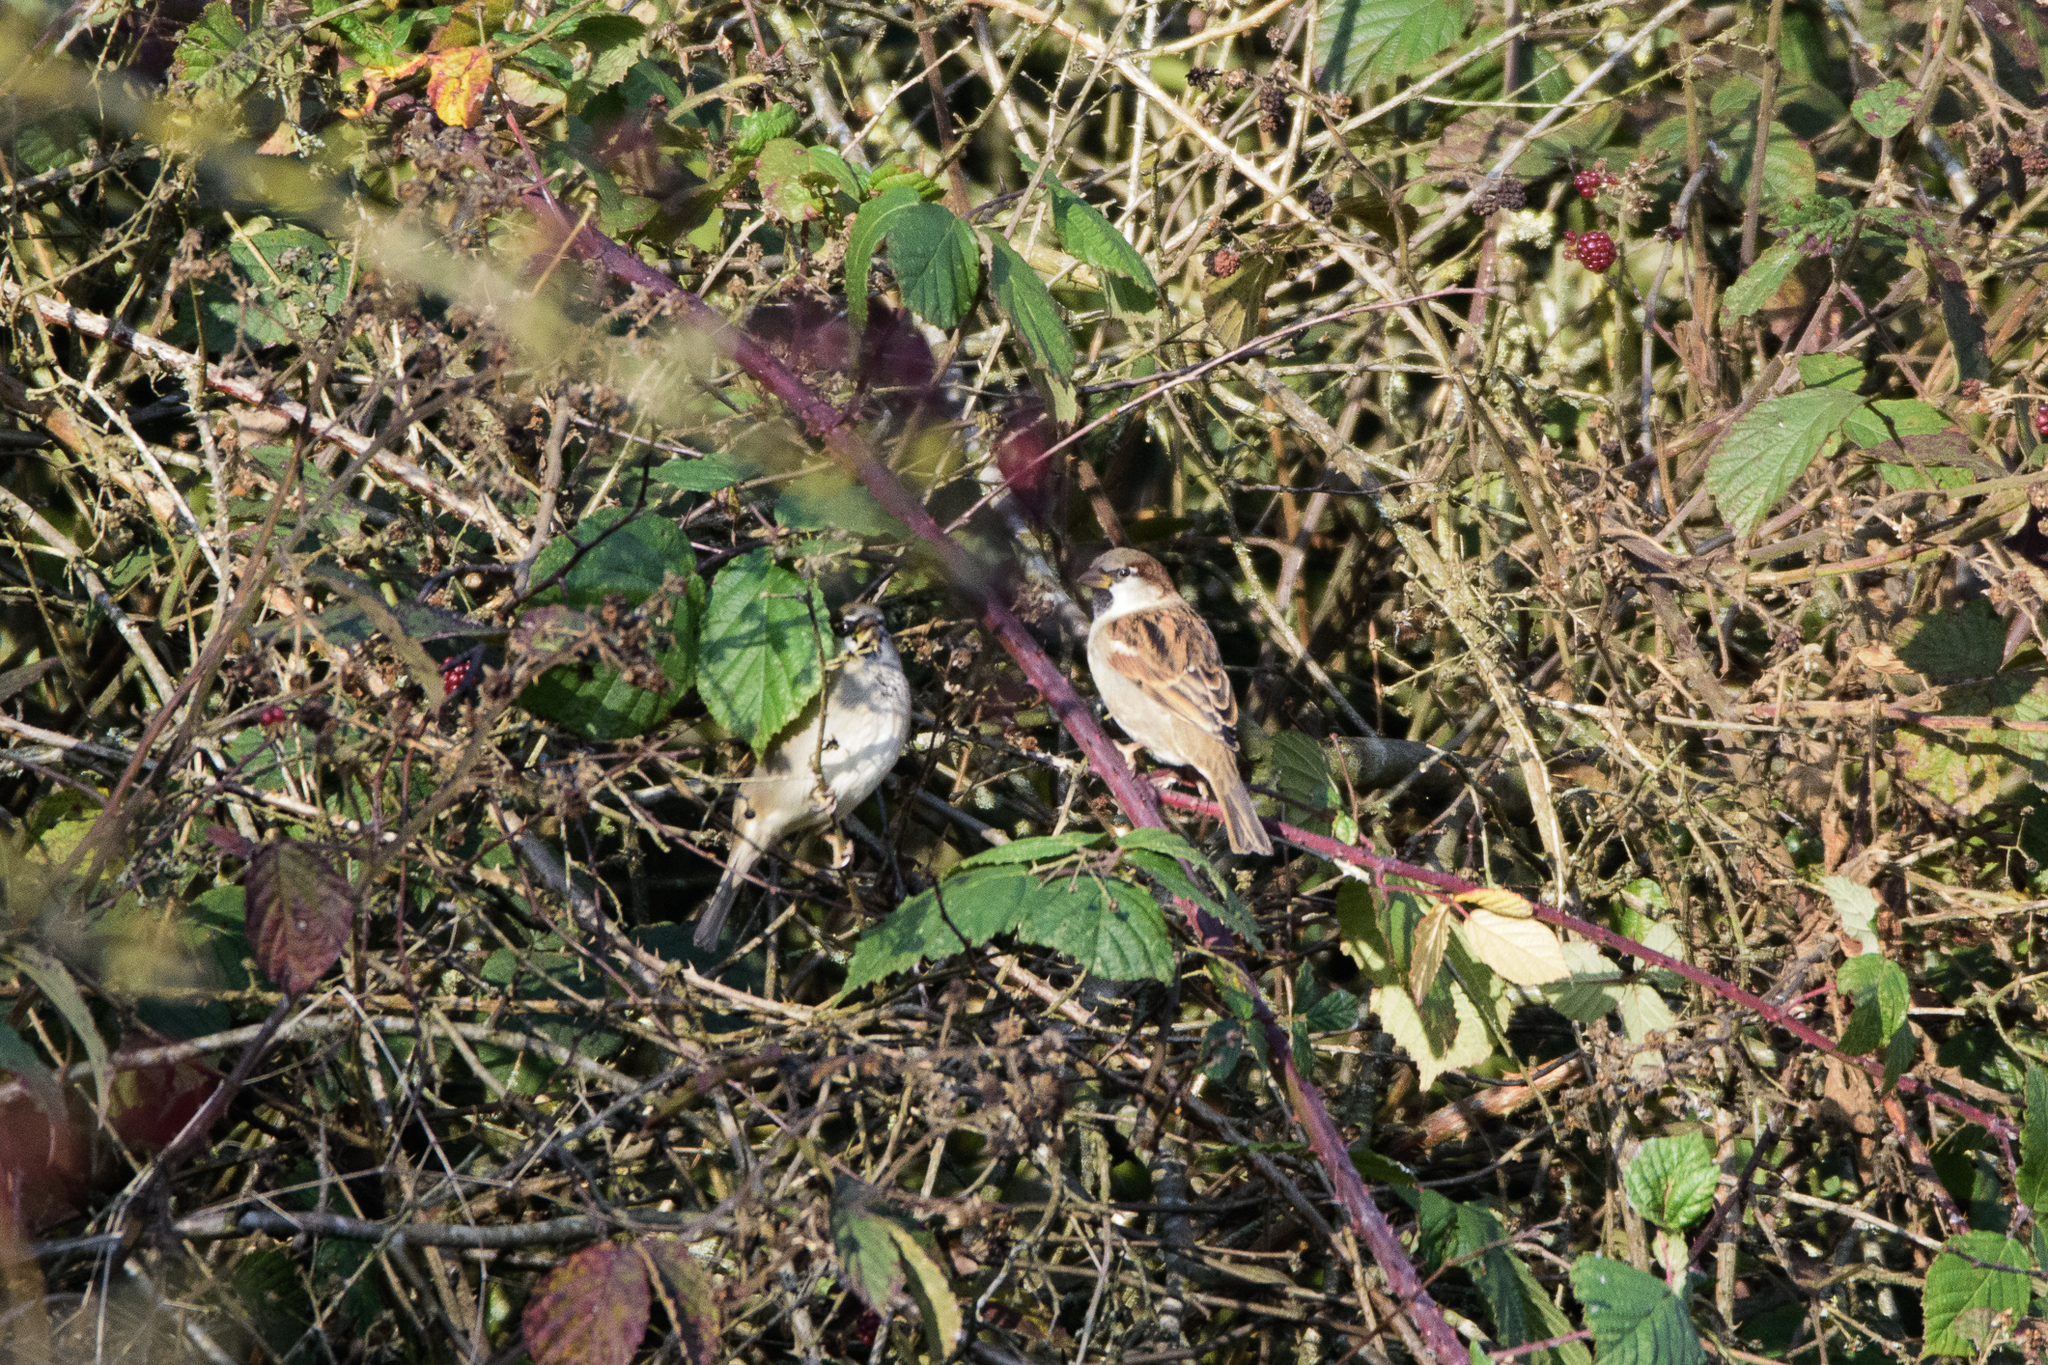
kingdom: Animalia
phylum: Chordata
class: Aves
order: Passeriformes
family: Passeridae
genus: Passer
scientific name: Passer domesticus
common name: House sparrow
